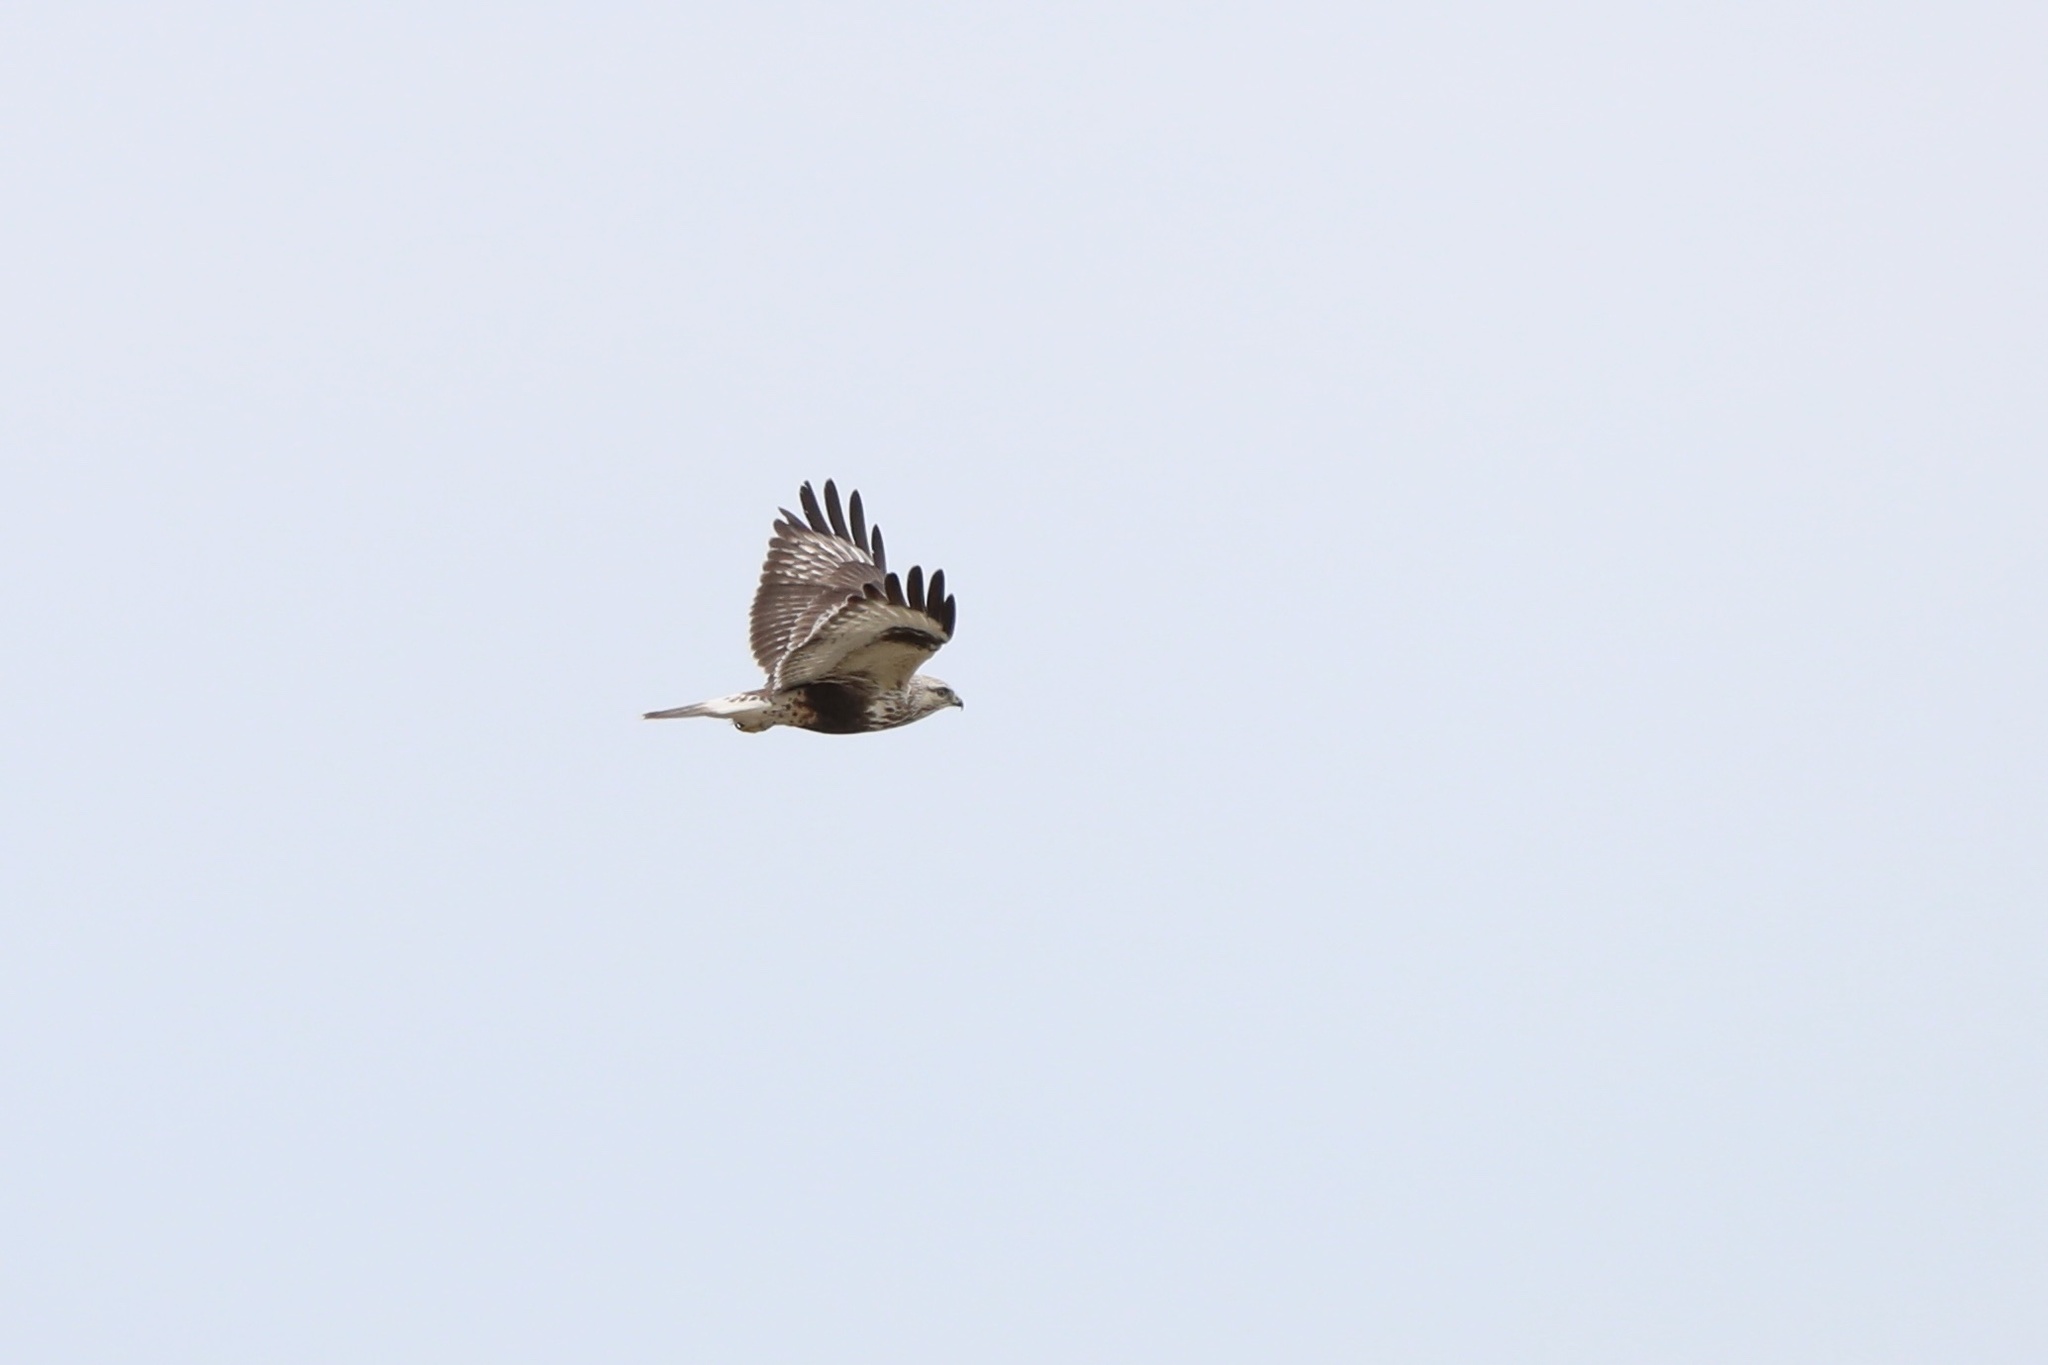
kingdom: Animalia
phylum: Chordata
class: Aves
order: Accipitriformes
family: Accipitridae
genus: Buteo
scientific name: Buteo lagopus
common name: Rough-legged buzzard
